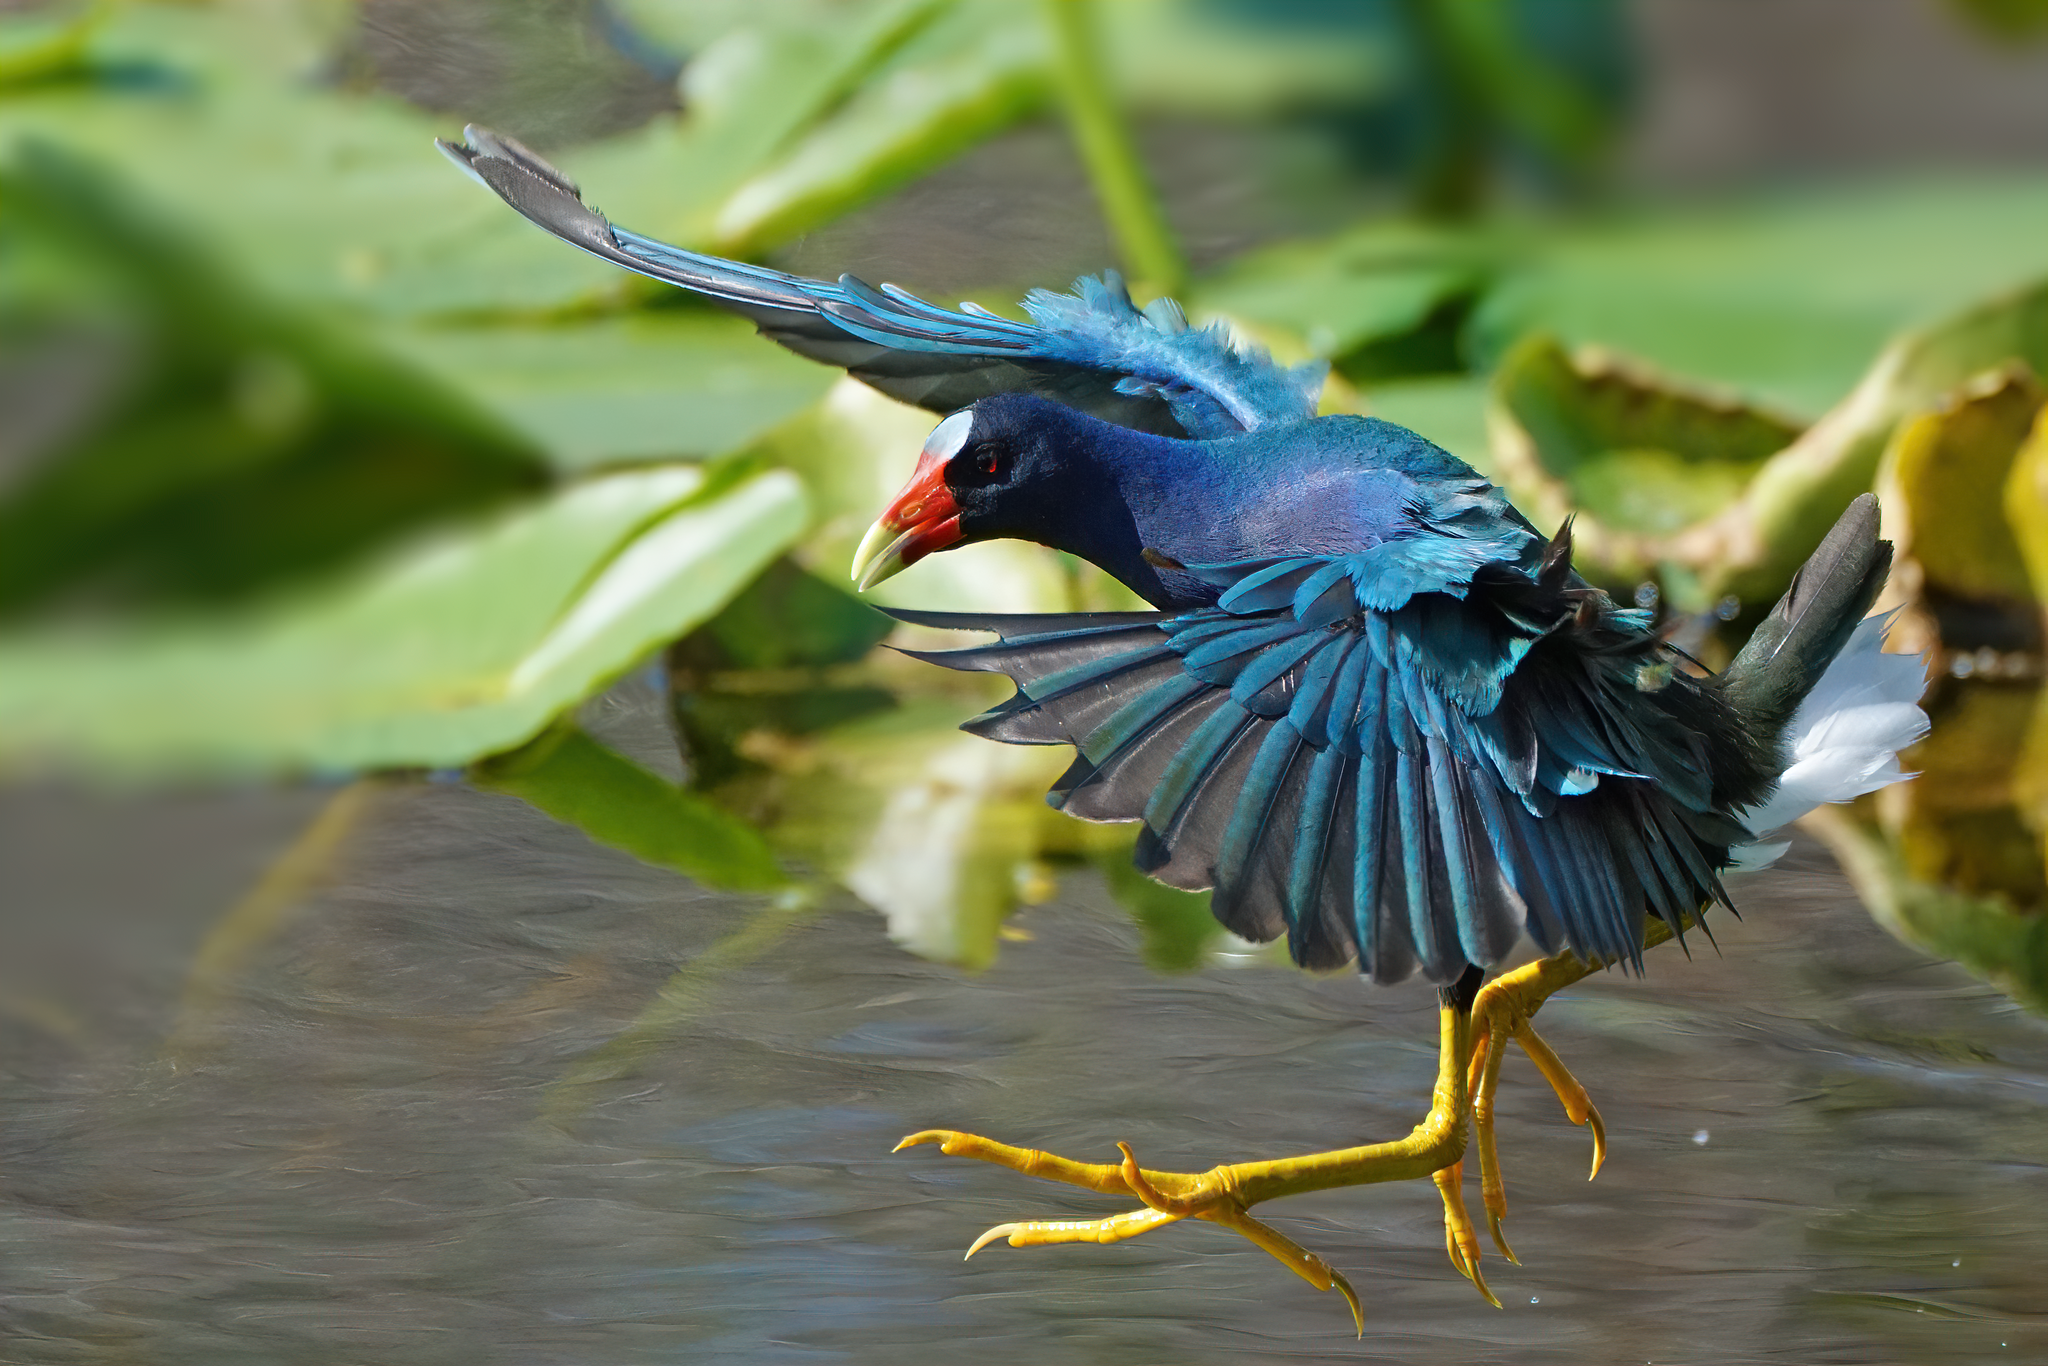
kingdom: Animalia
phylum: Chordata
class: Aves
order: Gruiformes
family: Rallidae
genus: Porphyrio
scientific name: Porphyrio martinica
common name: Purple gallinule
